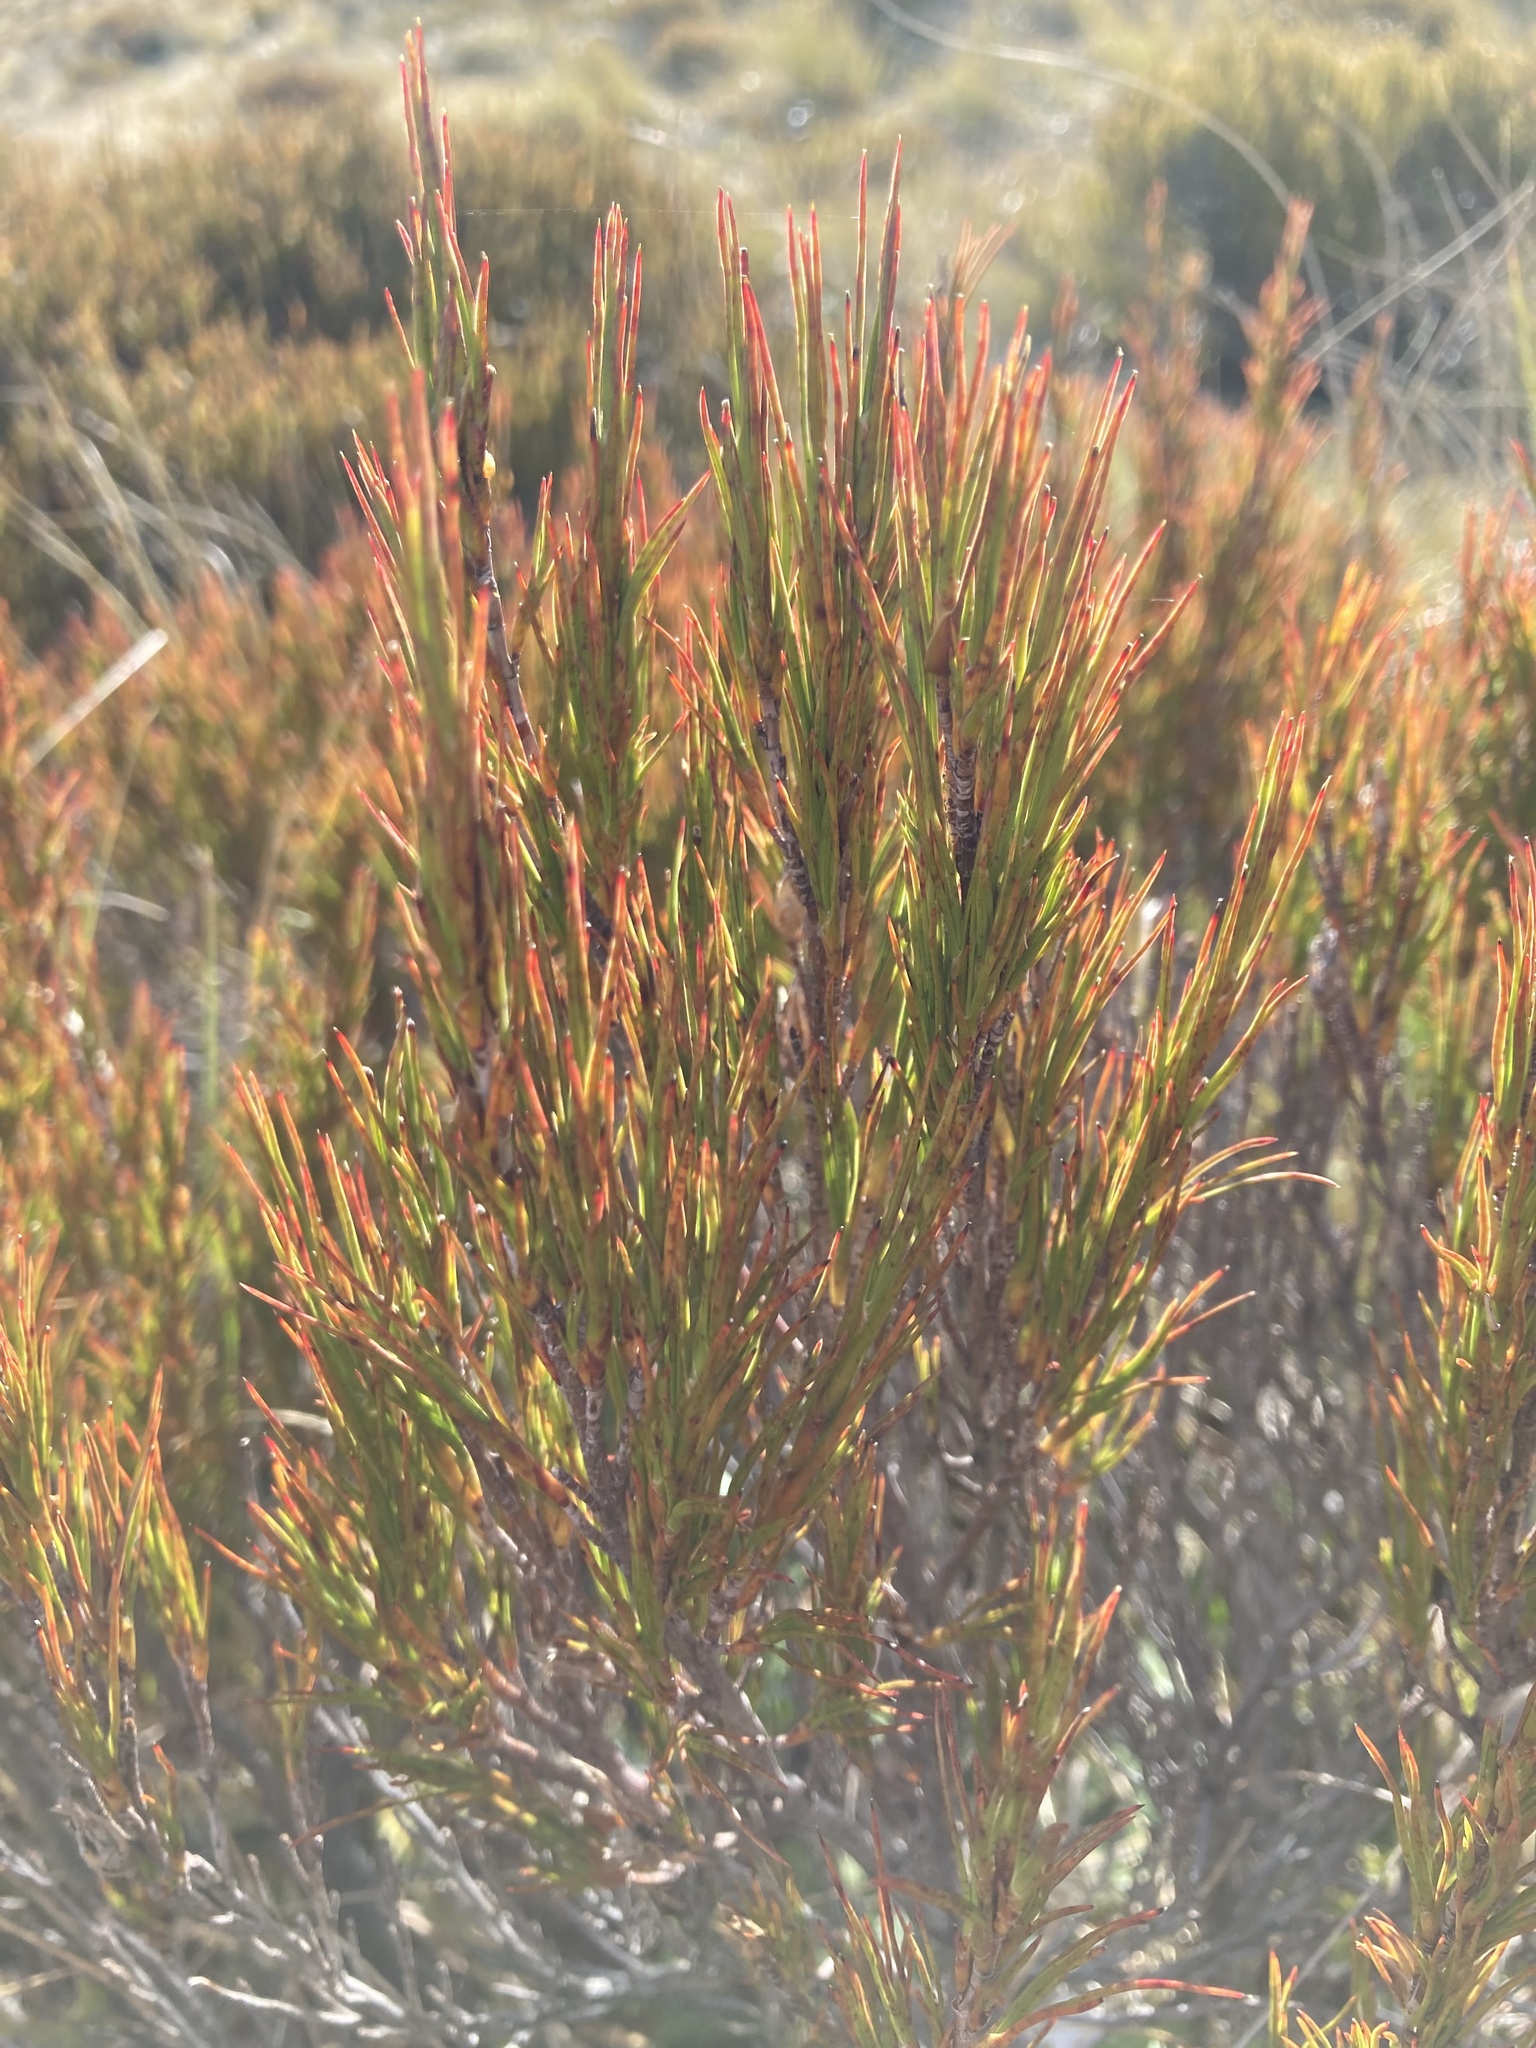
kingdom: Plantae
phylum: Tracheophyta
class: Magnoliopsida
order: Ericales
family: Ericaceae
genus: Dracophyllum
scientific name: Dracophyllum rosmarinifolium
